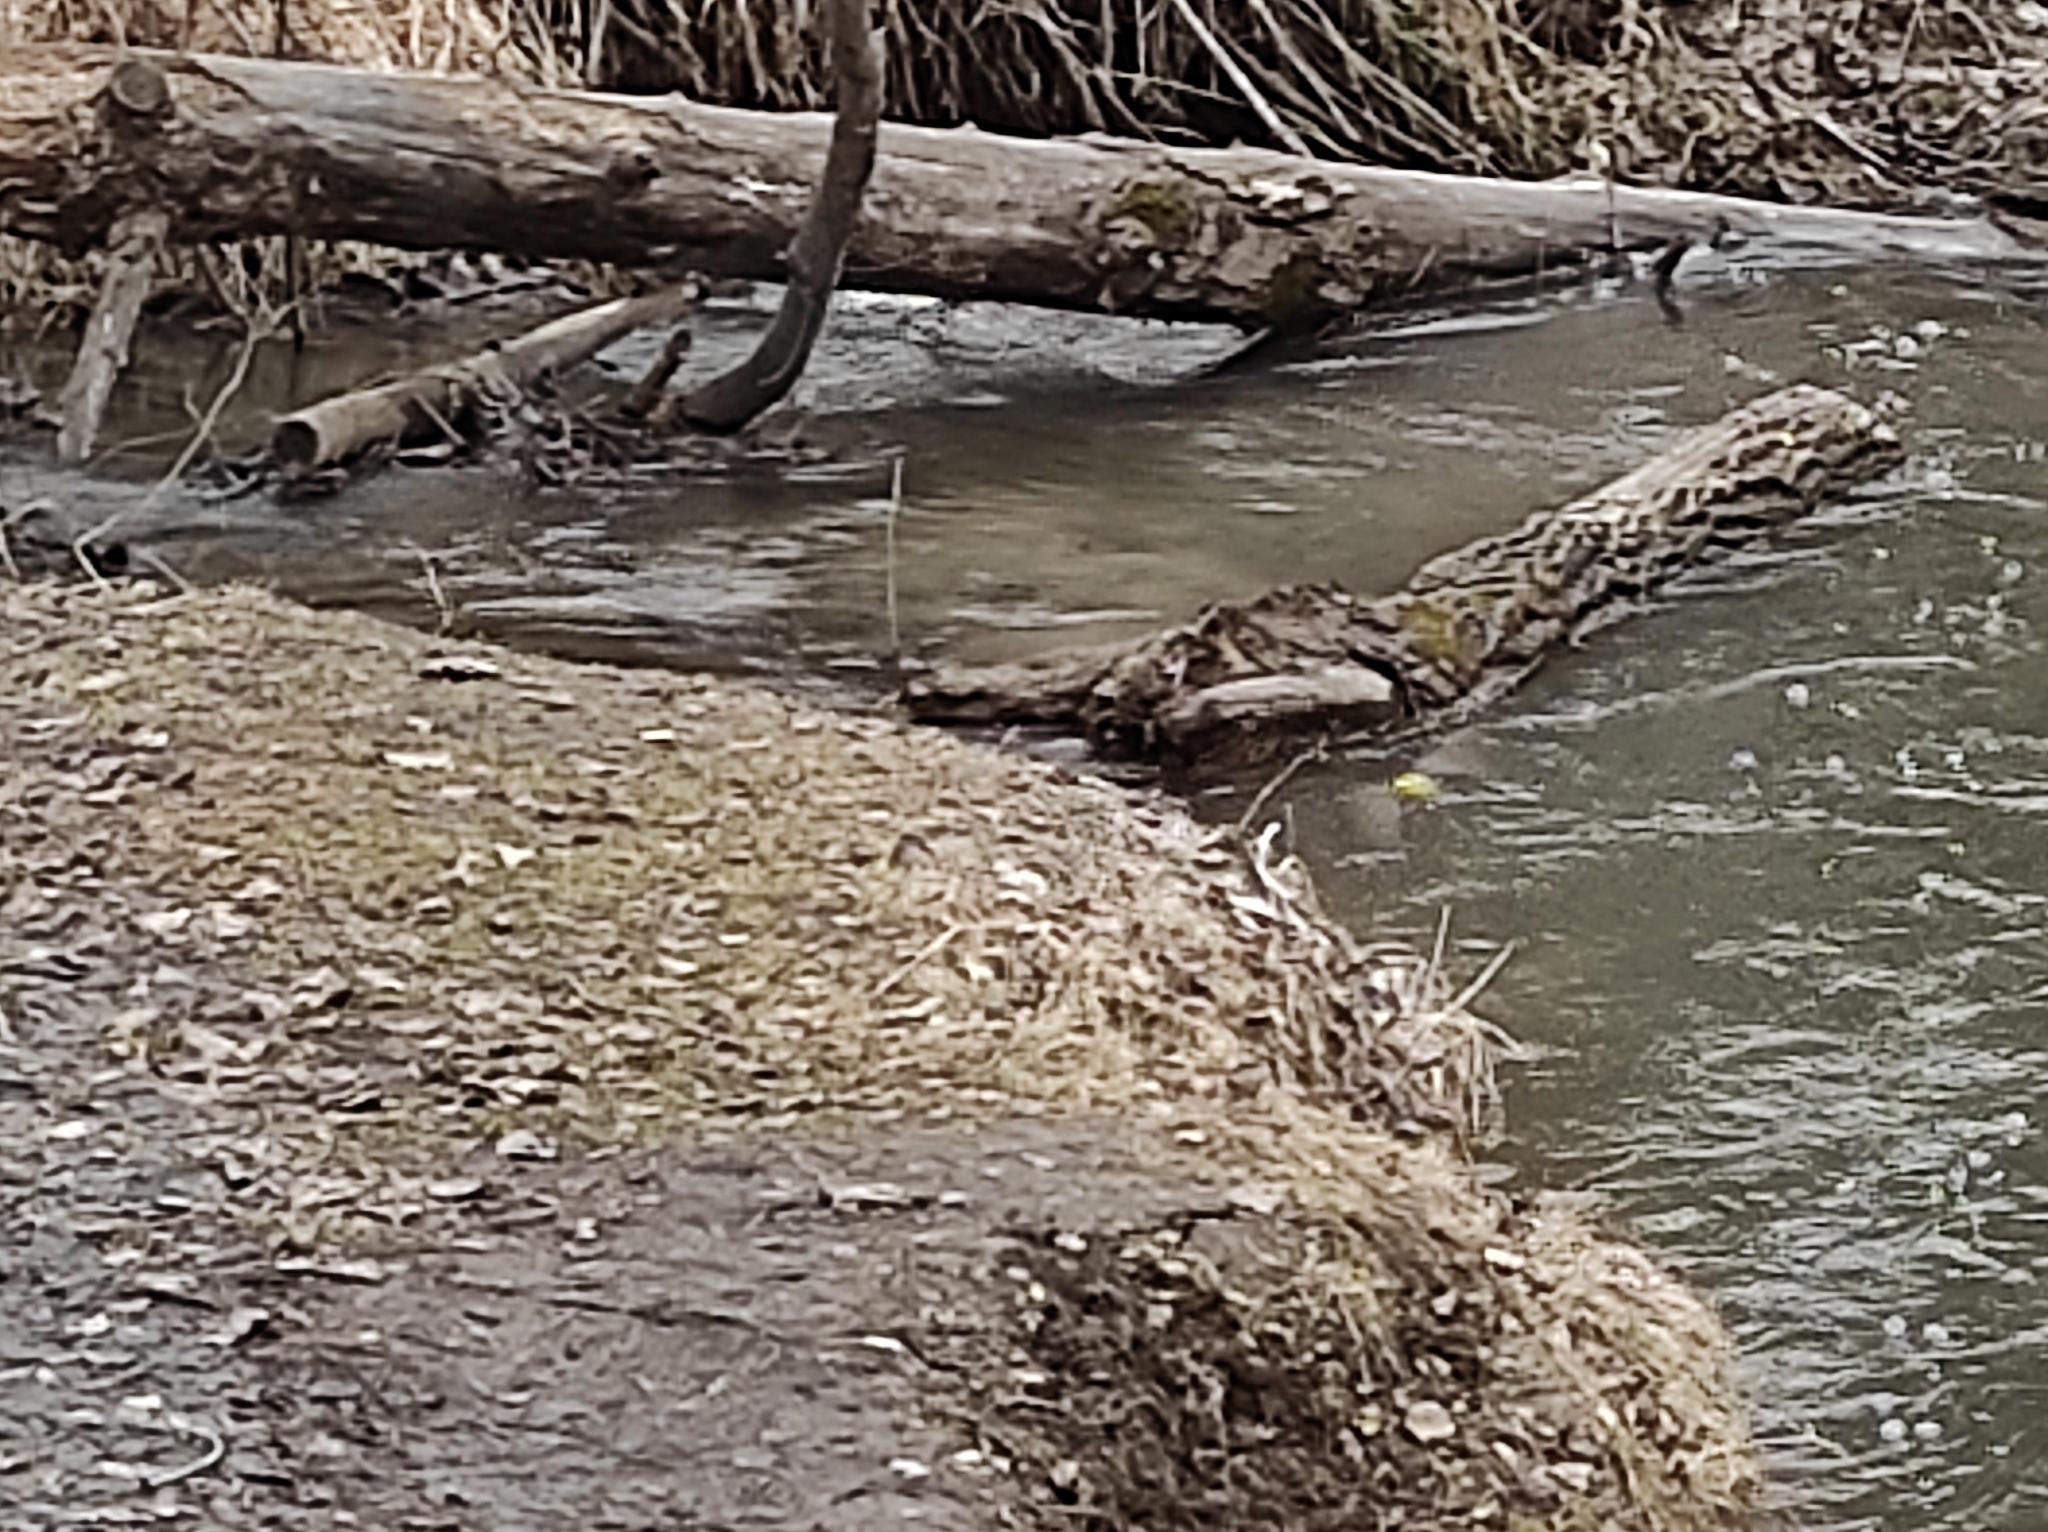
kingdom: Animalia
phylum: Chordata
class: Aves
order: Passeriformes
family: Motacillidae
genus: Motacilla
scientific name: Motacilla cinerea
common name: Grey wagtail
